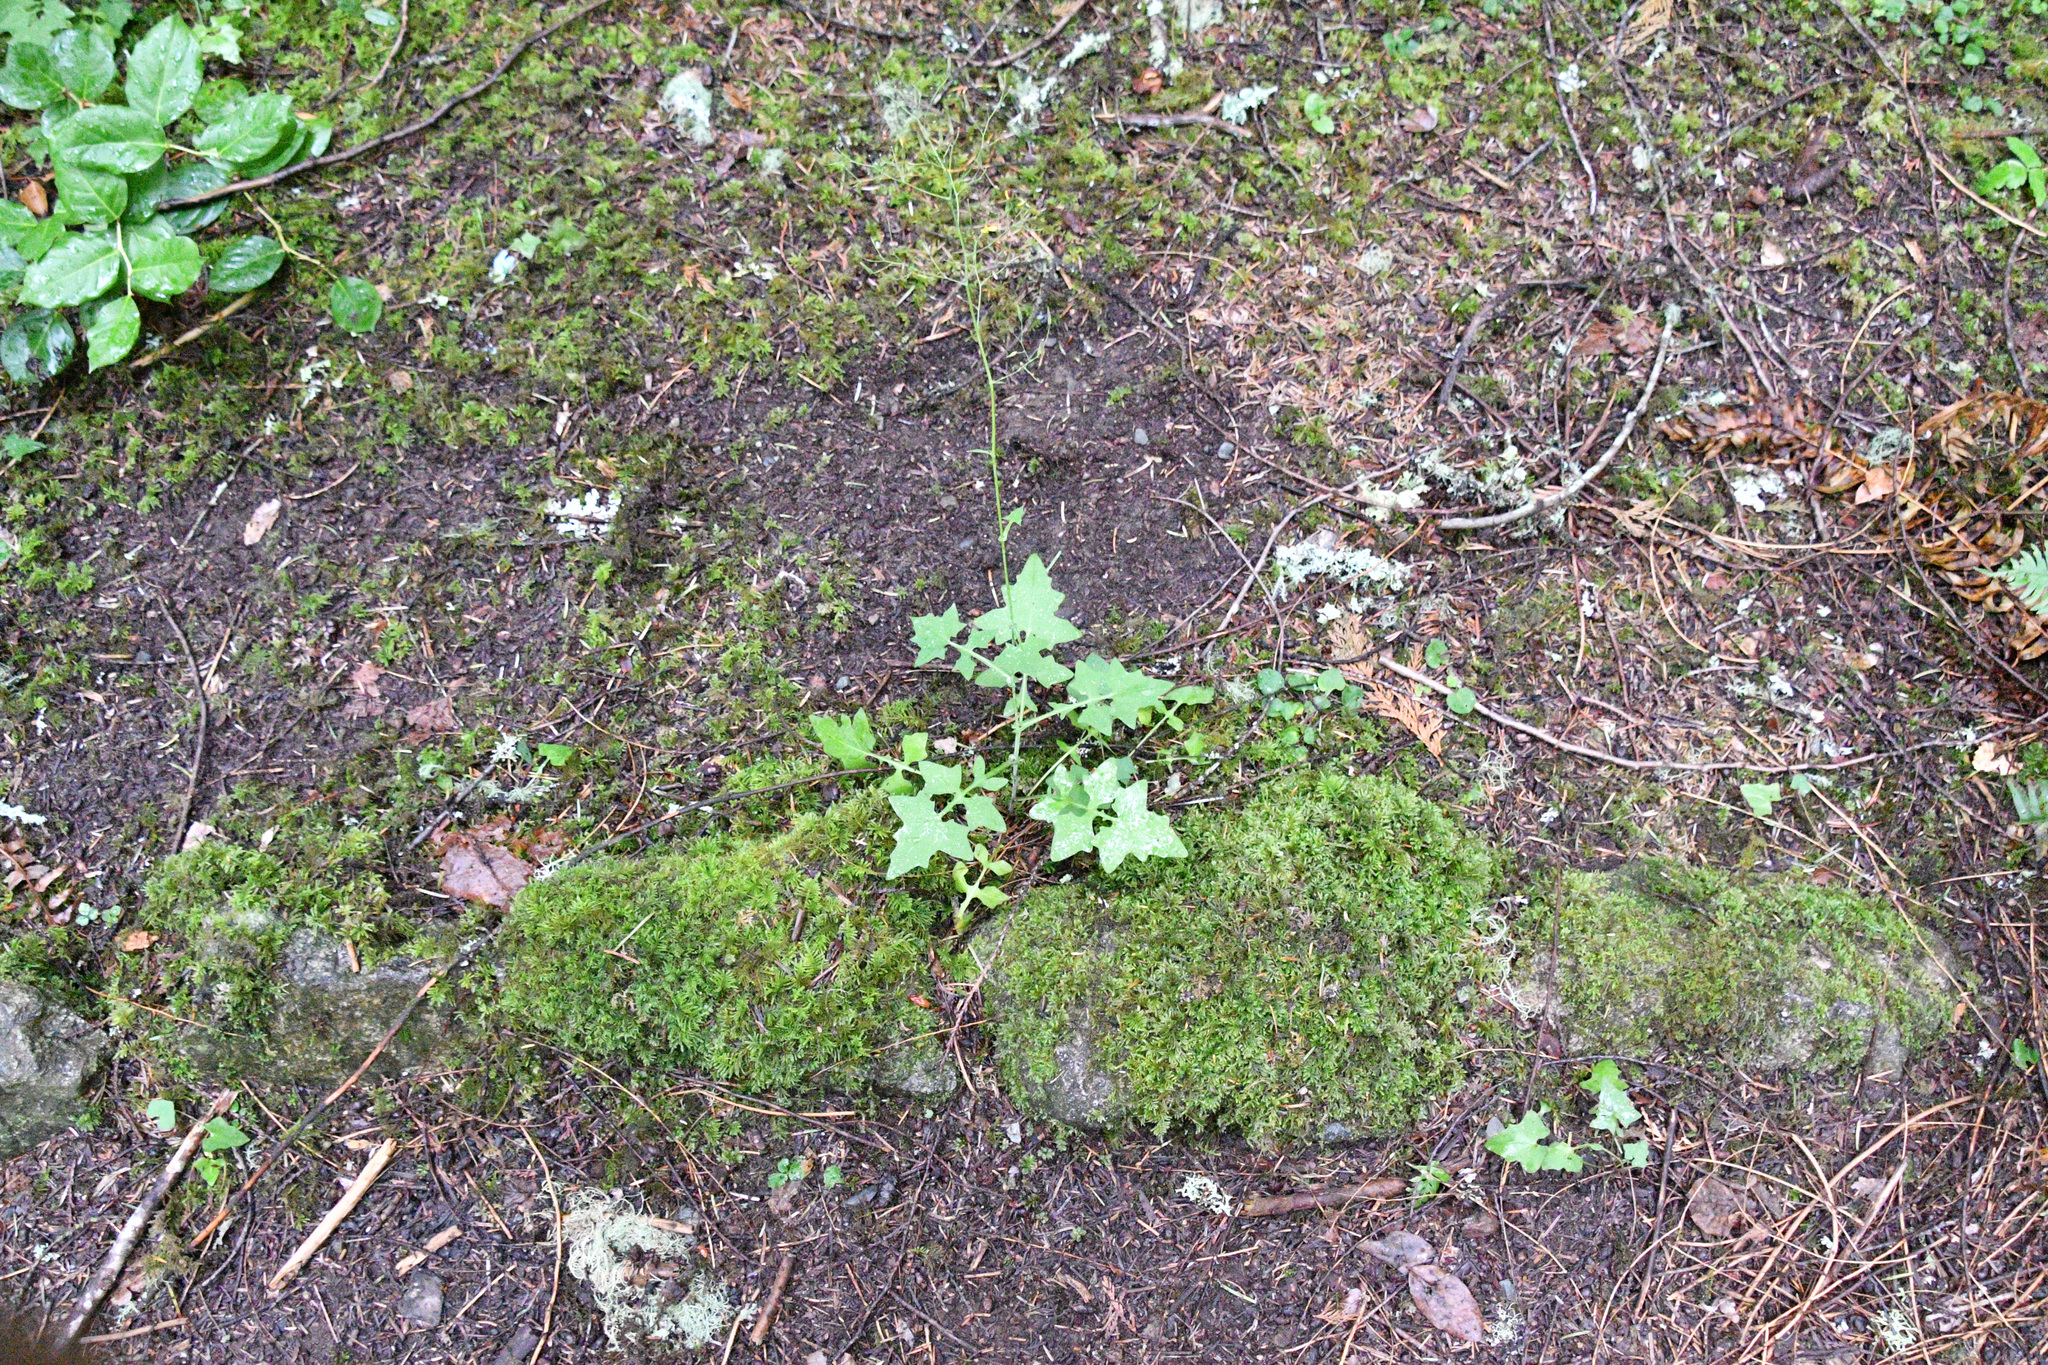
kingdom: Plantae
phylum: Tracheophyta
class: Magnoliopsida
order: Asterales
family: Asteraceae
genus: Mycelis
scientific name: Mycelis muralis
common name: Wall lettuce
